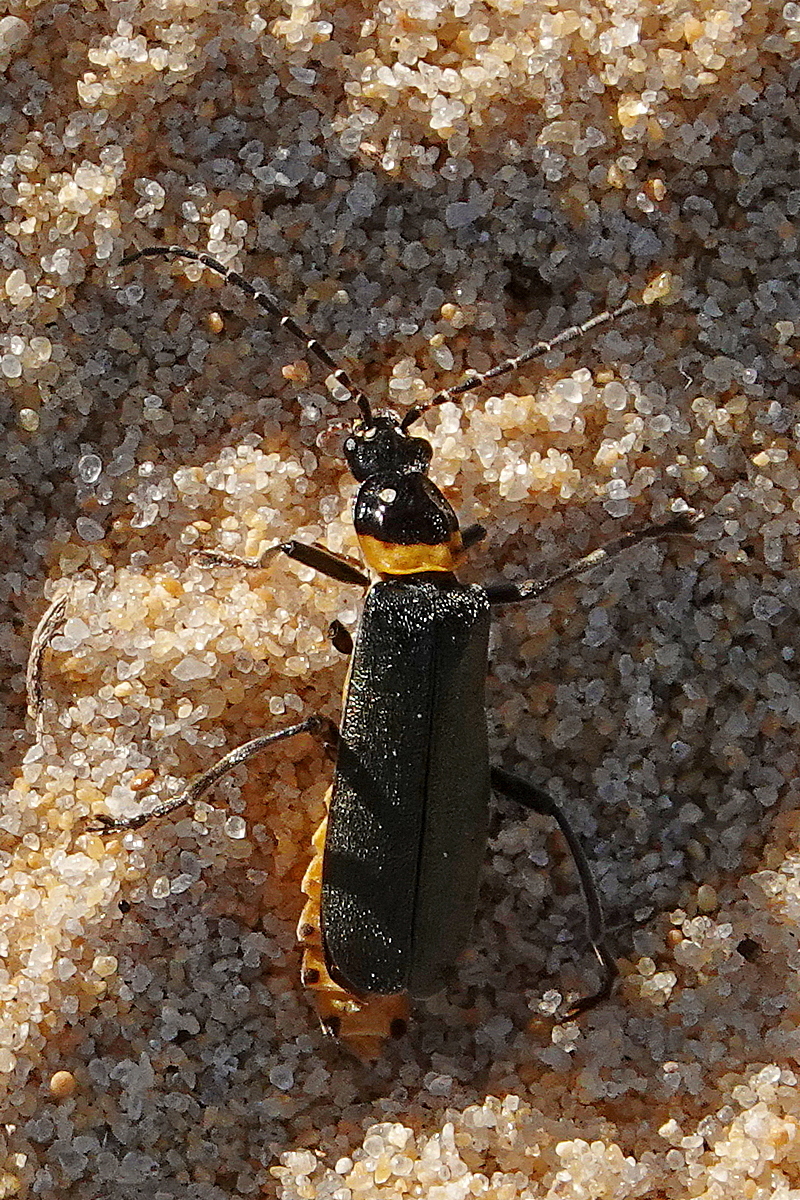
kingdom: Animalia
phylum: Arthropoda
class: Insecta
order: Coleoptera
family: Cantharidae
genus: Chauliognathus
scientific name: Chauliognathus
